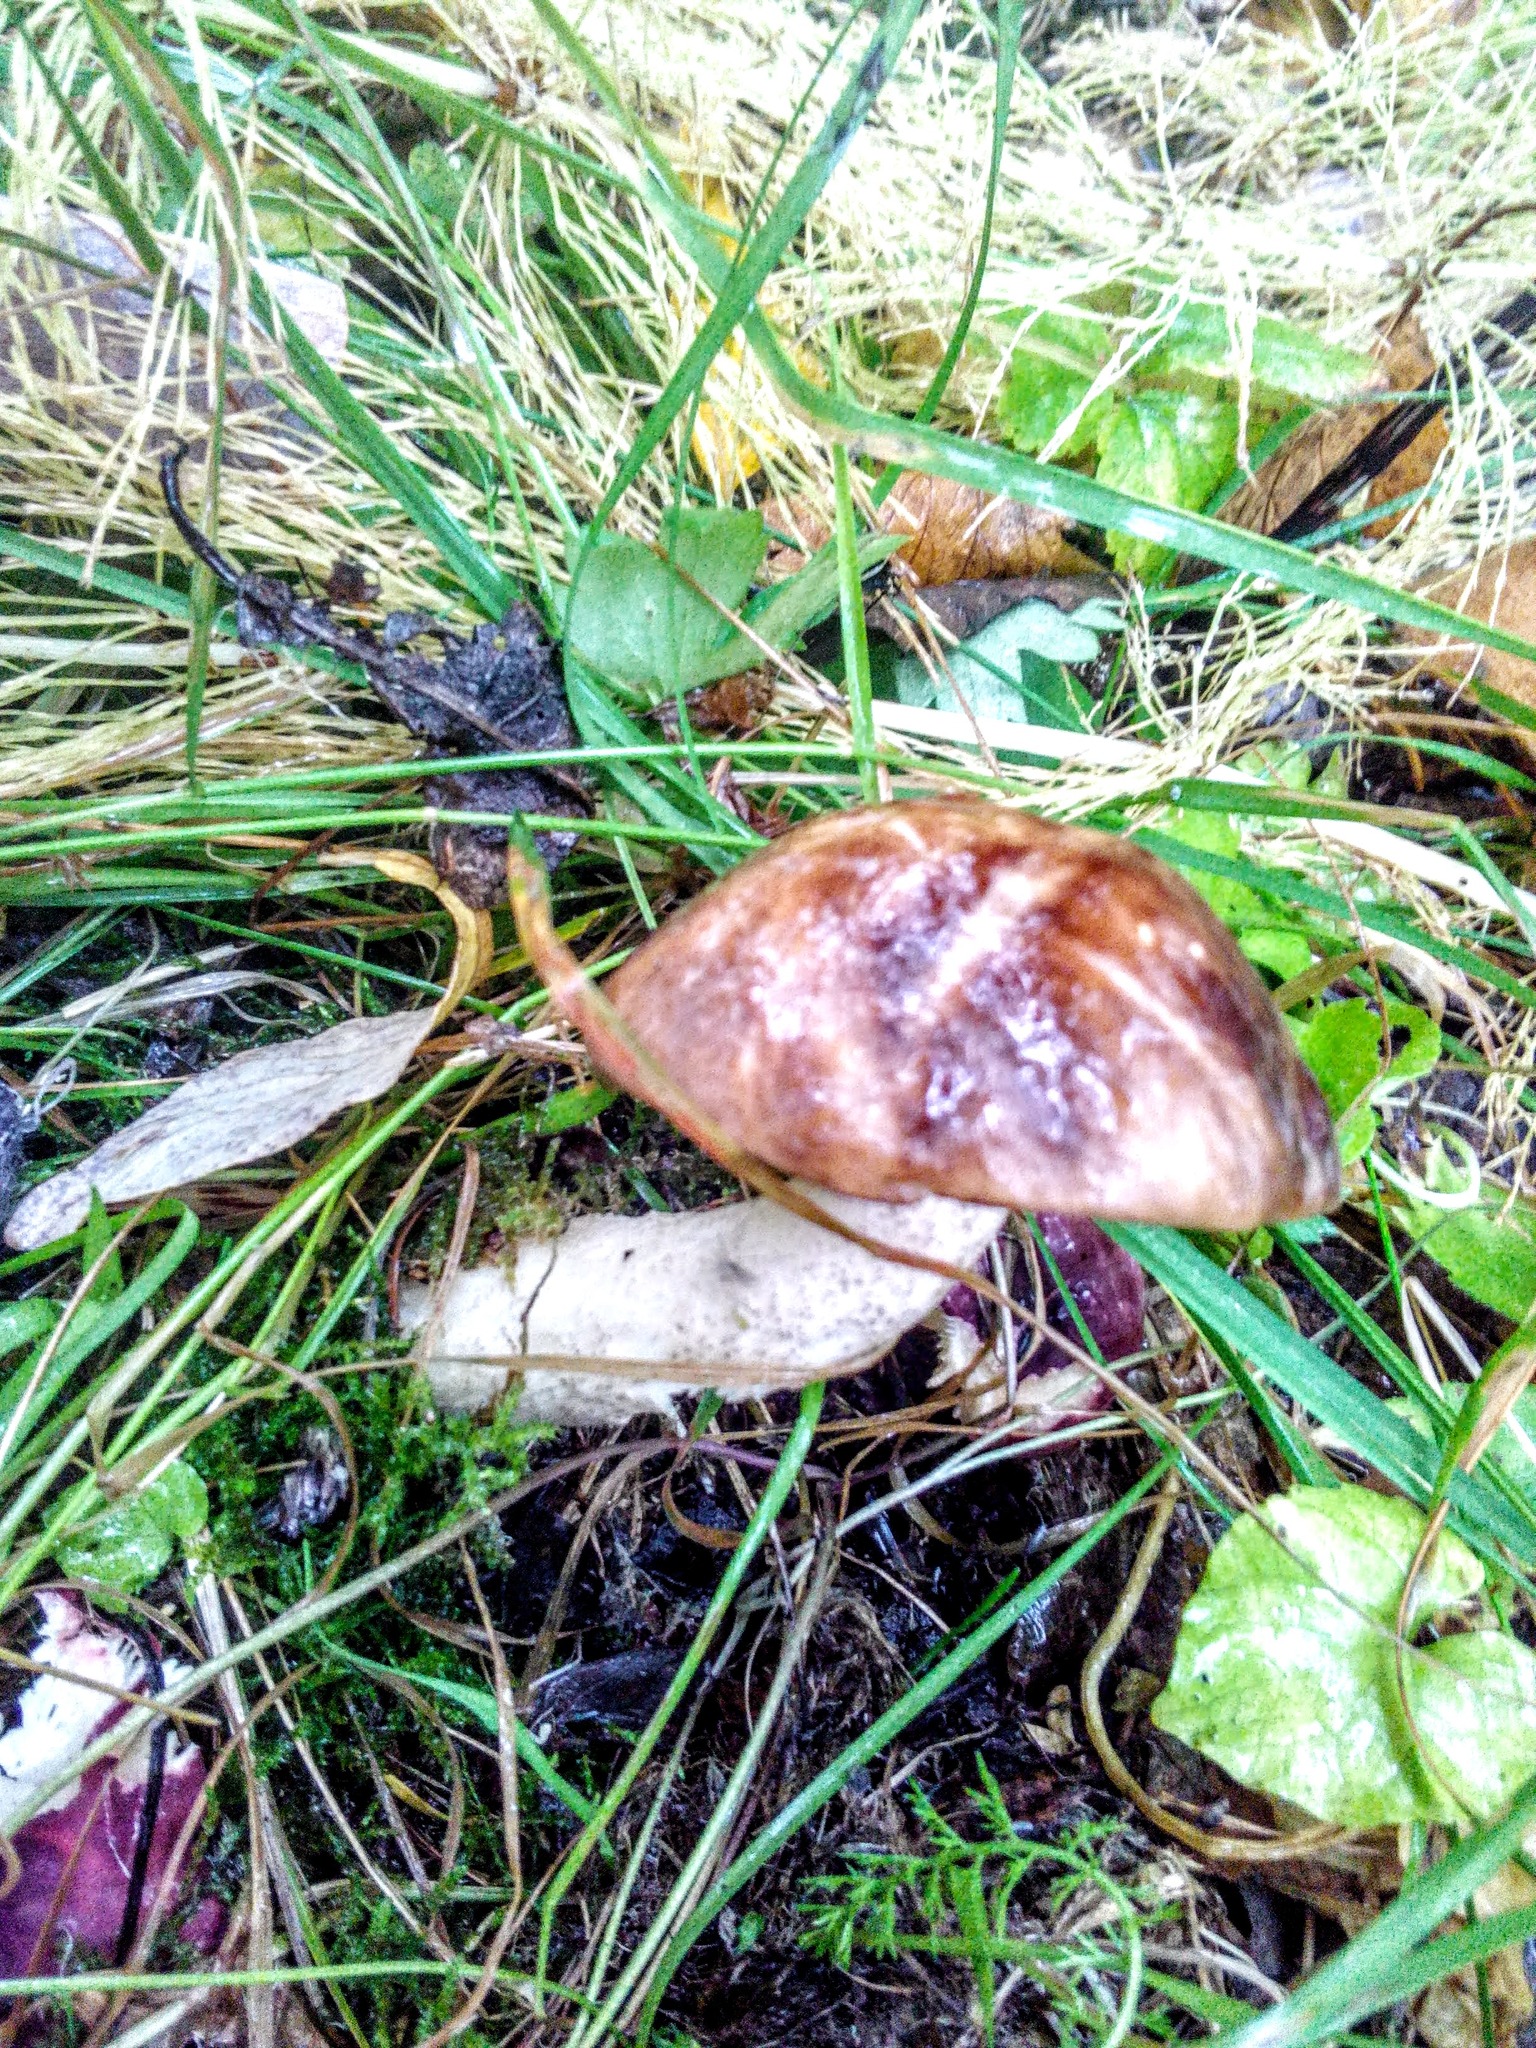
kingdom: Fungi
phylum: Basidiomycota
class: Agaricomycetes
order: Boletales
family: Boletaceae
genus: Leccinum
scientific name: Leccinum scabrum
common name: Blushing bolete
